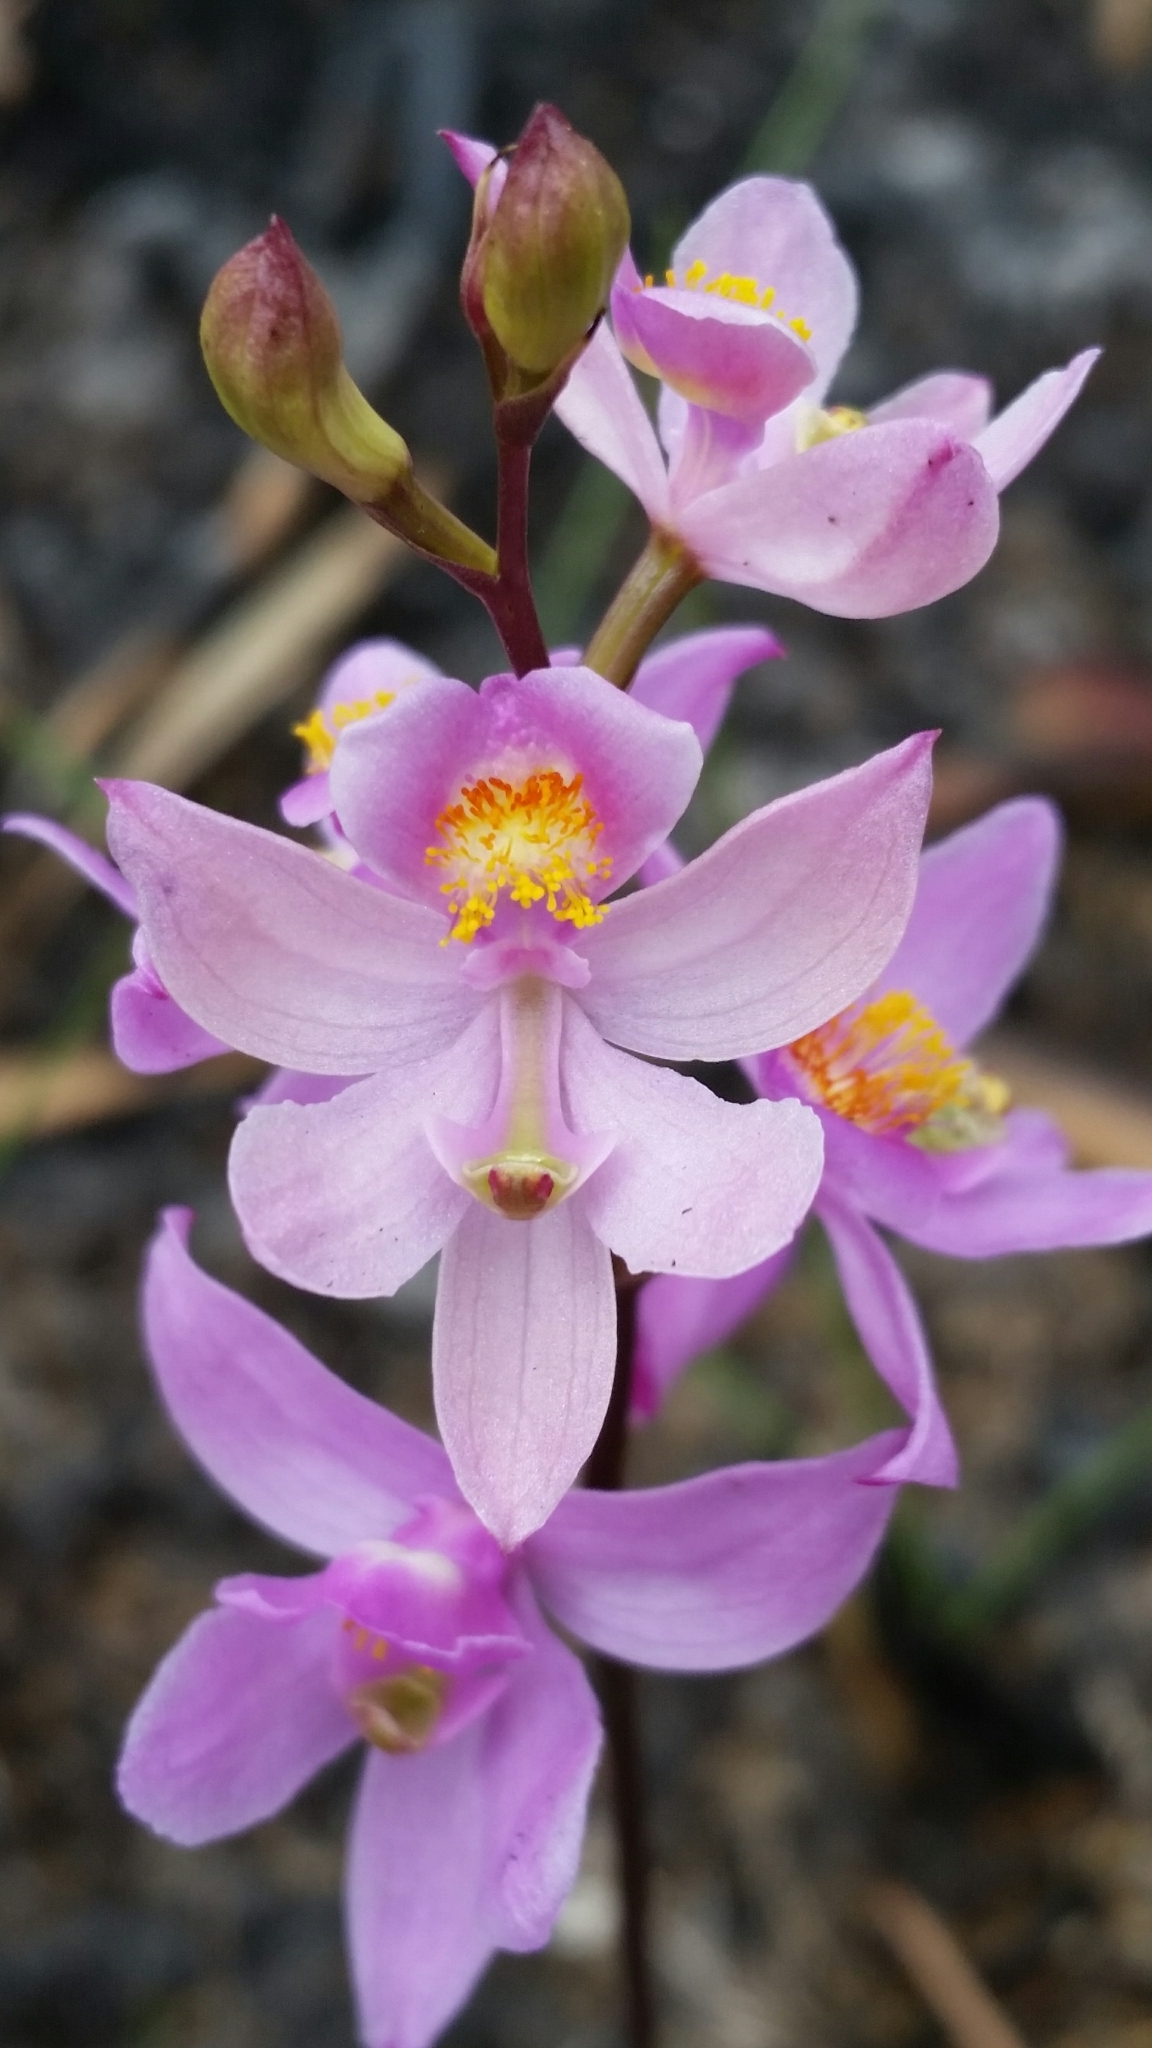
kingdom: Plantae
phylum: Tracheophyta
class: Liliopsida
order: Asparagales
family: Orchidaceae
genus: Calopogon
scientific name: Calopogon multiflorus
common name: Many-flowered grass-pink orchid
